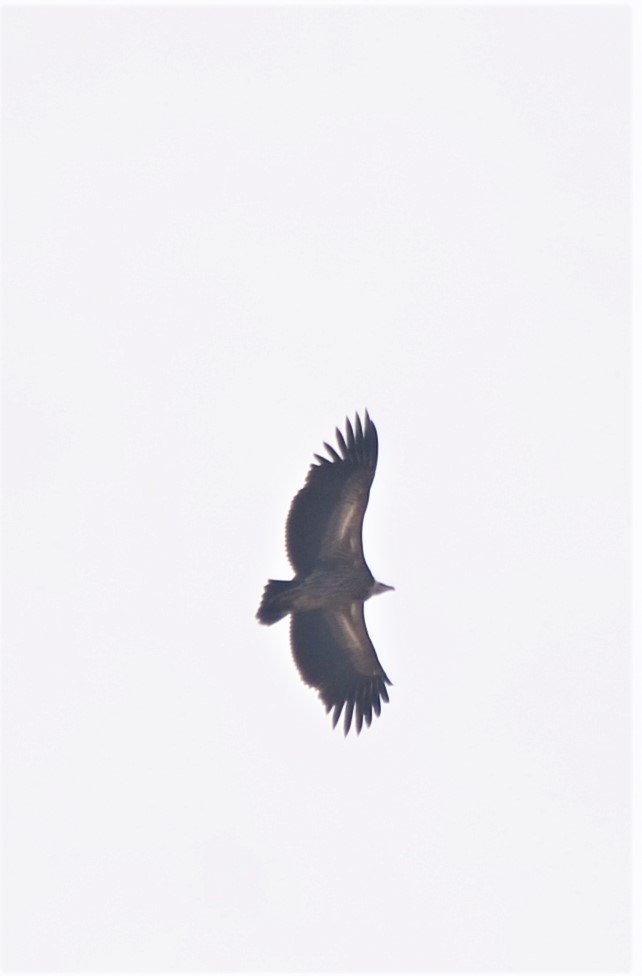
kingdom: Animalia
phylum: Chordata
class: Aves
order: Accipitriformes
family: Accipitridae
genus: Gyps
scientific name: Gyps himalayensis
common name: Himalayan griffon
